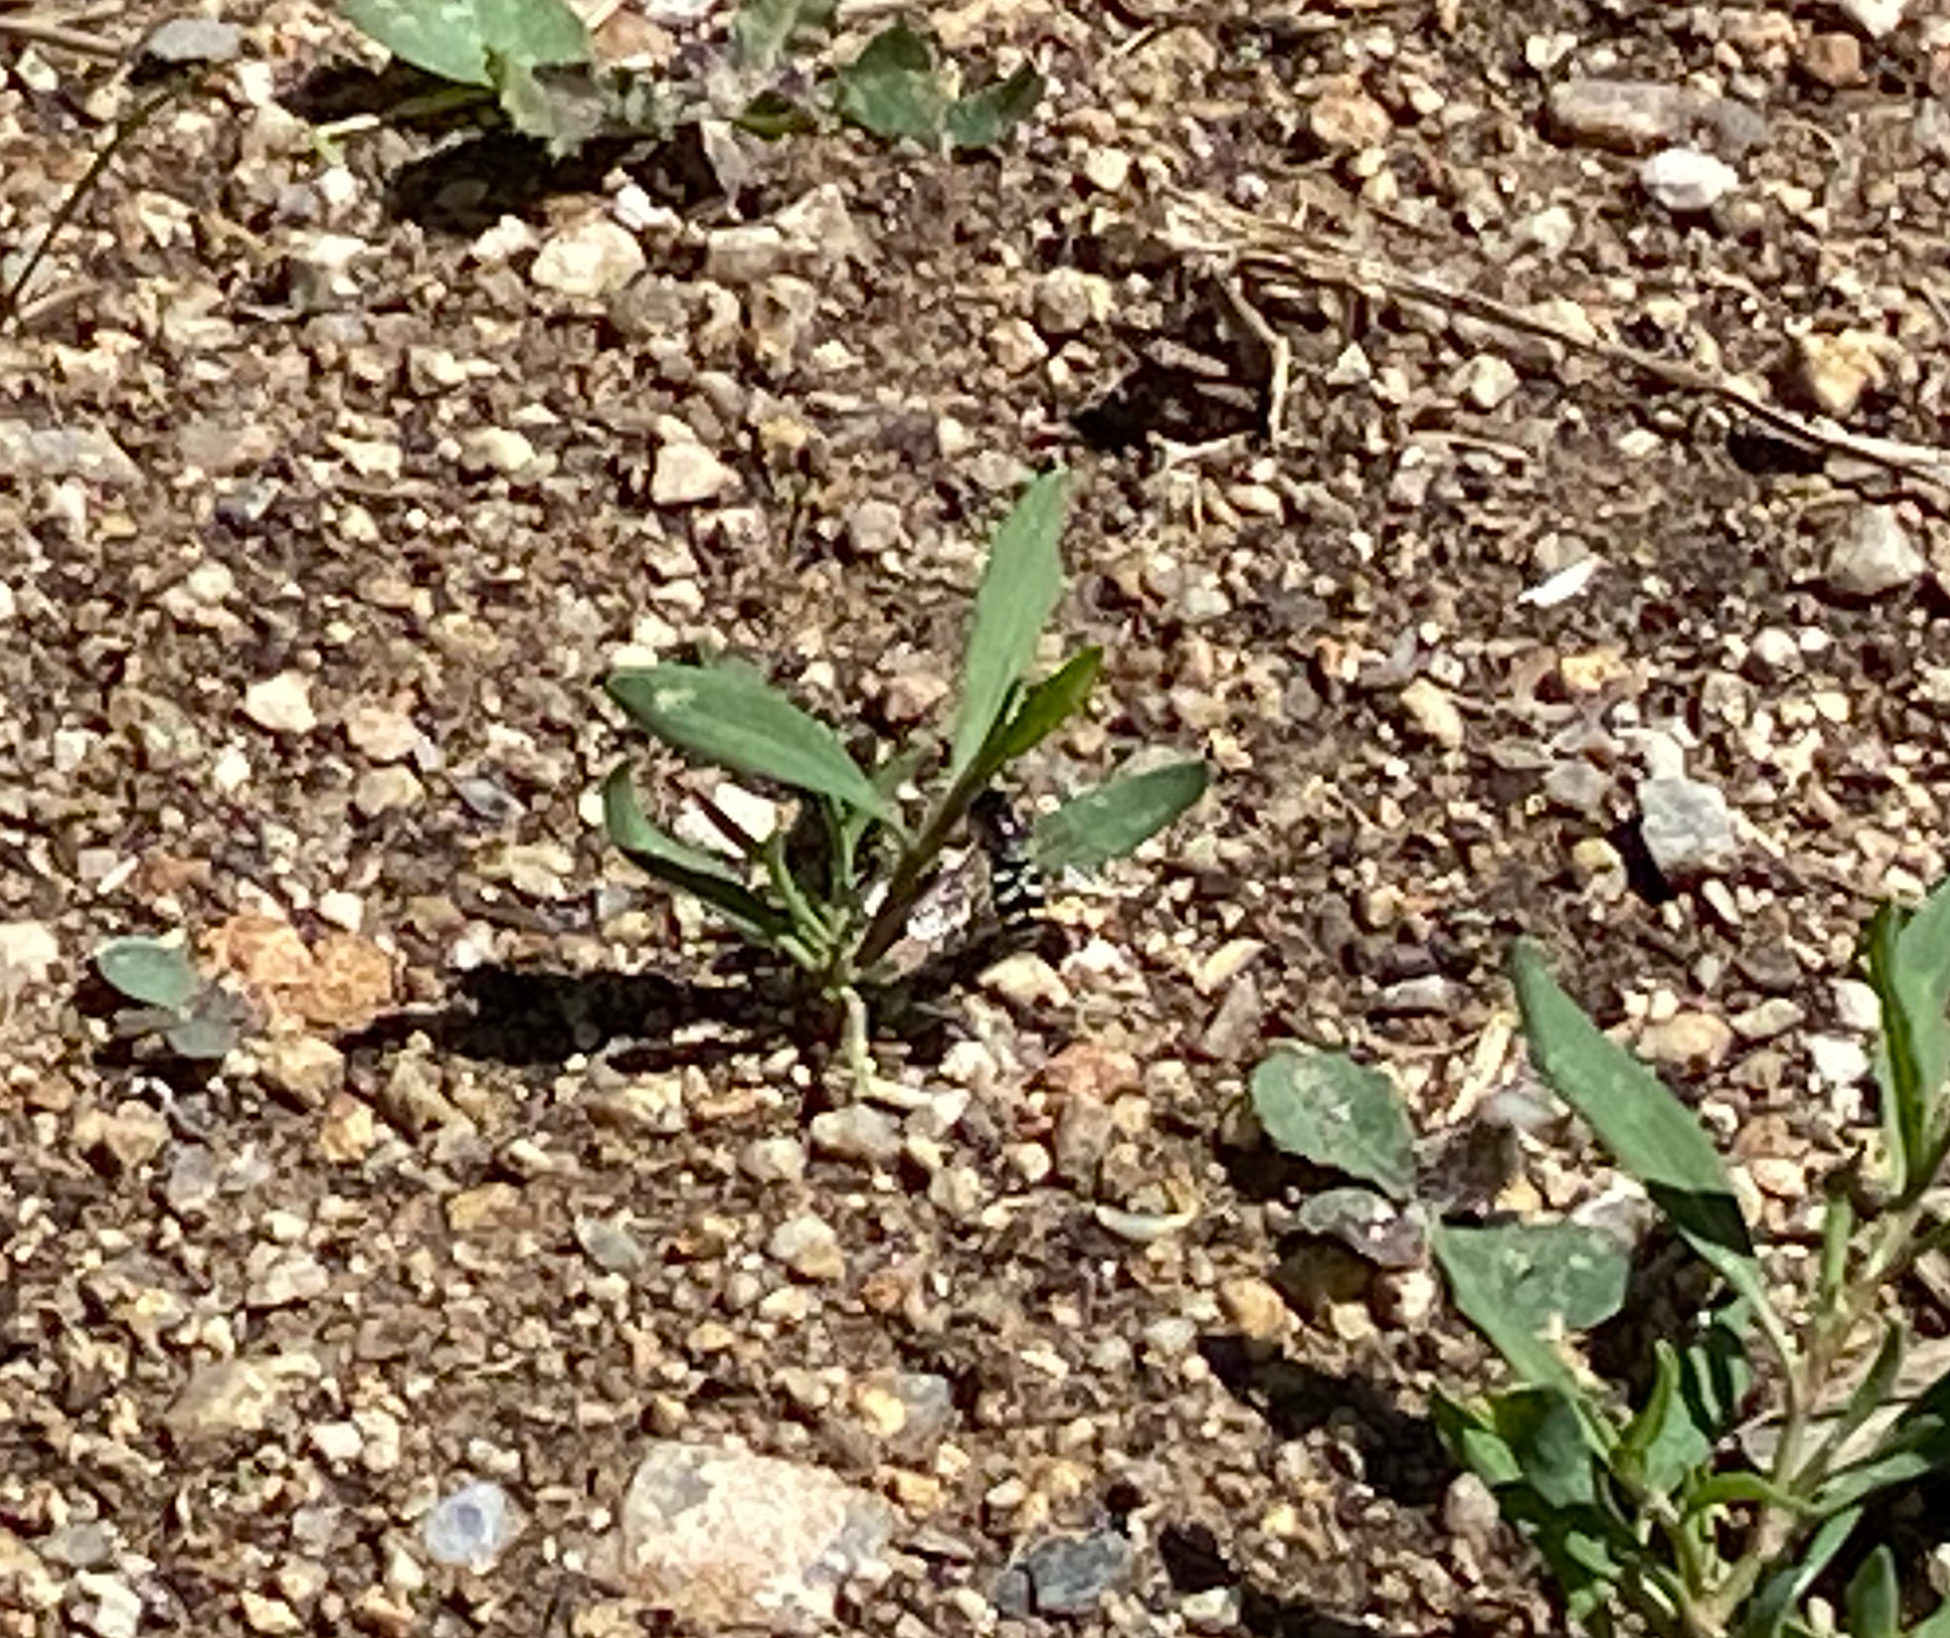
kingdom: Animalia
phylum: Arthropoda
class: Insecta
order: Diptera
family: Syrphidae
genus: Eupeodes
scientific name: Eupeodes volucris
